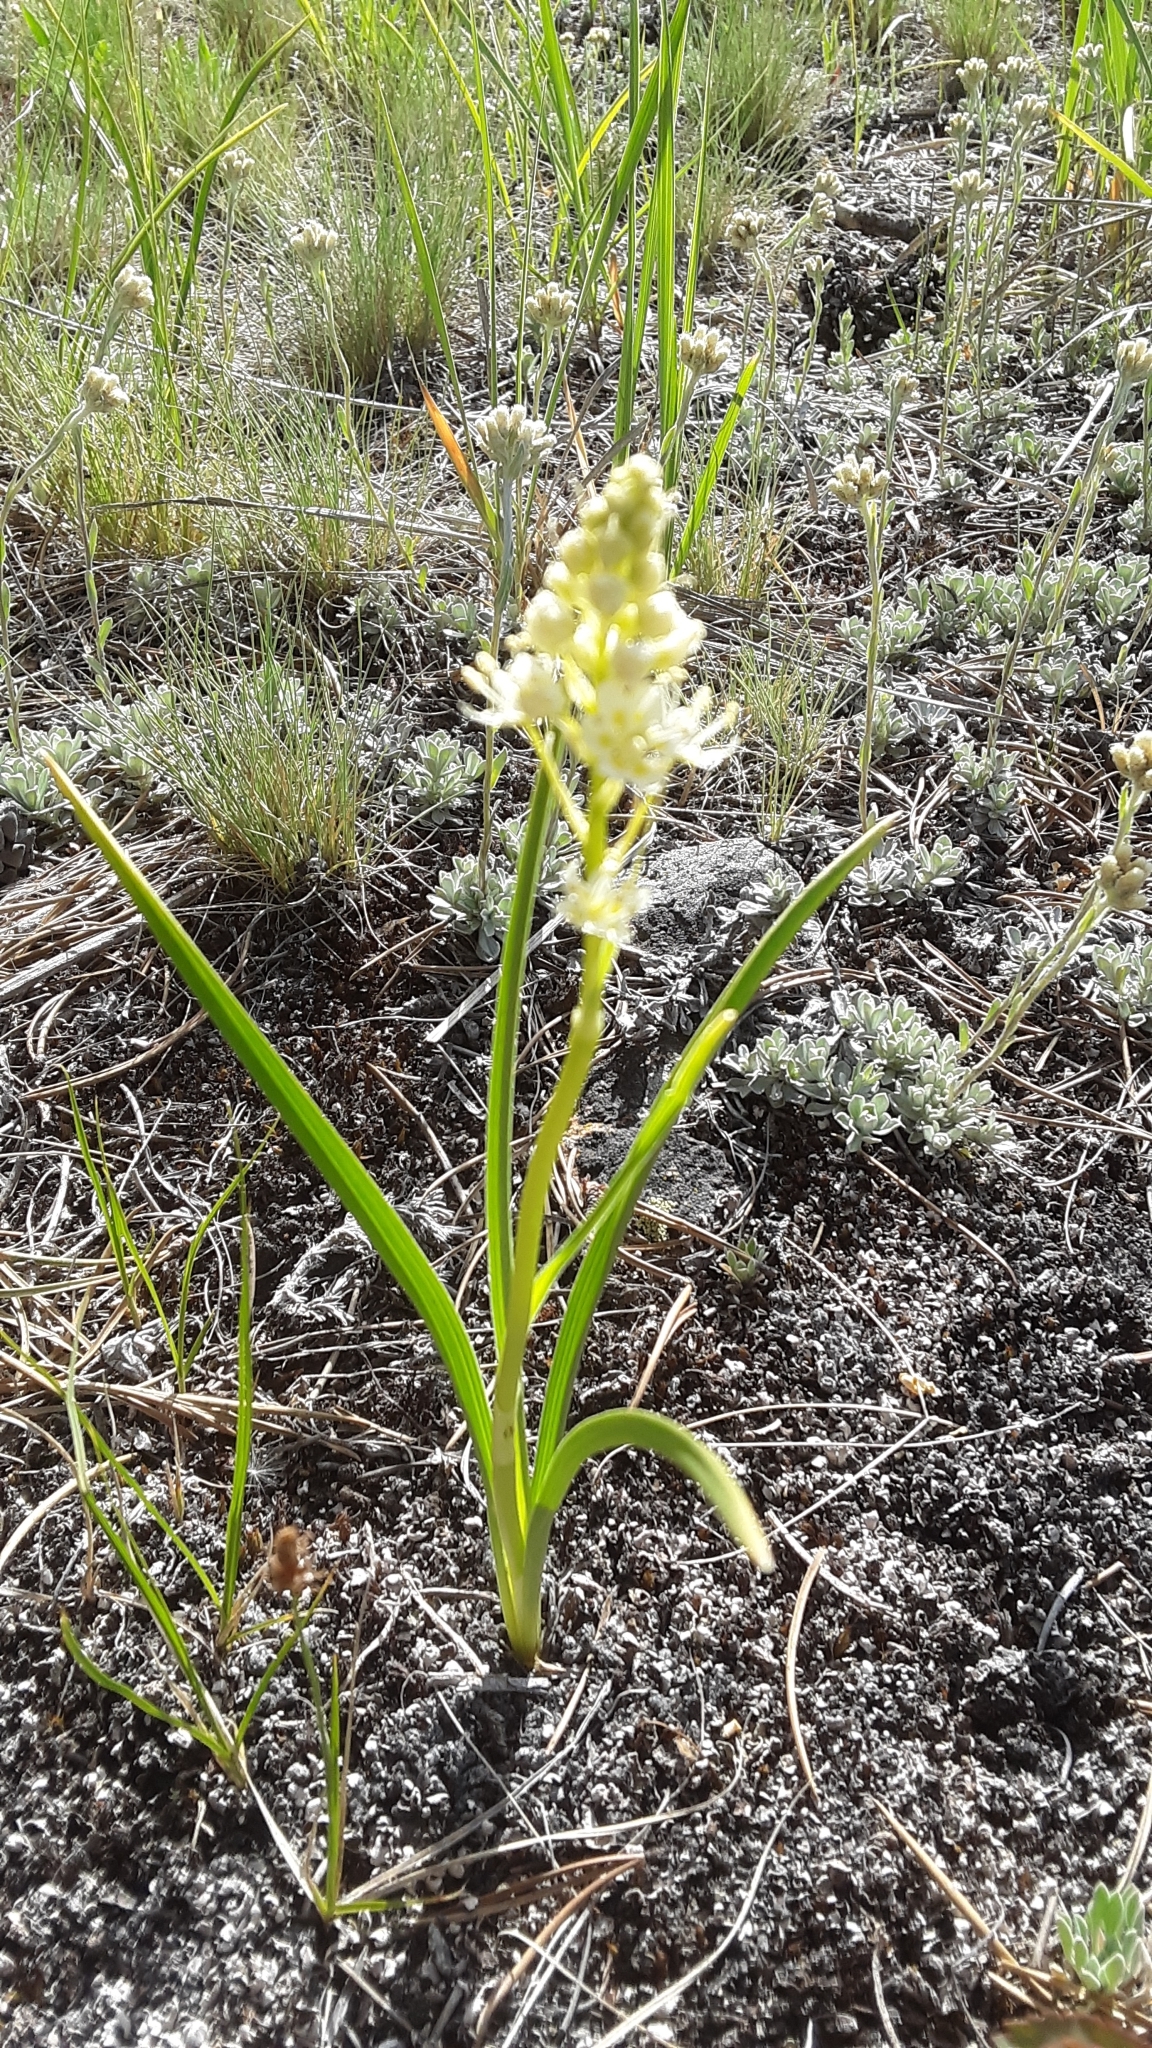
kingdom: Plantae
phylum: Tracheophyta
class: Liliopsida
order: Liliales
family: Melanthiaceae
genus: Toxicoscordion
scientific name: Toxicoscordion venenosum
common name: Meadow death camas
